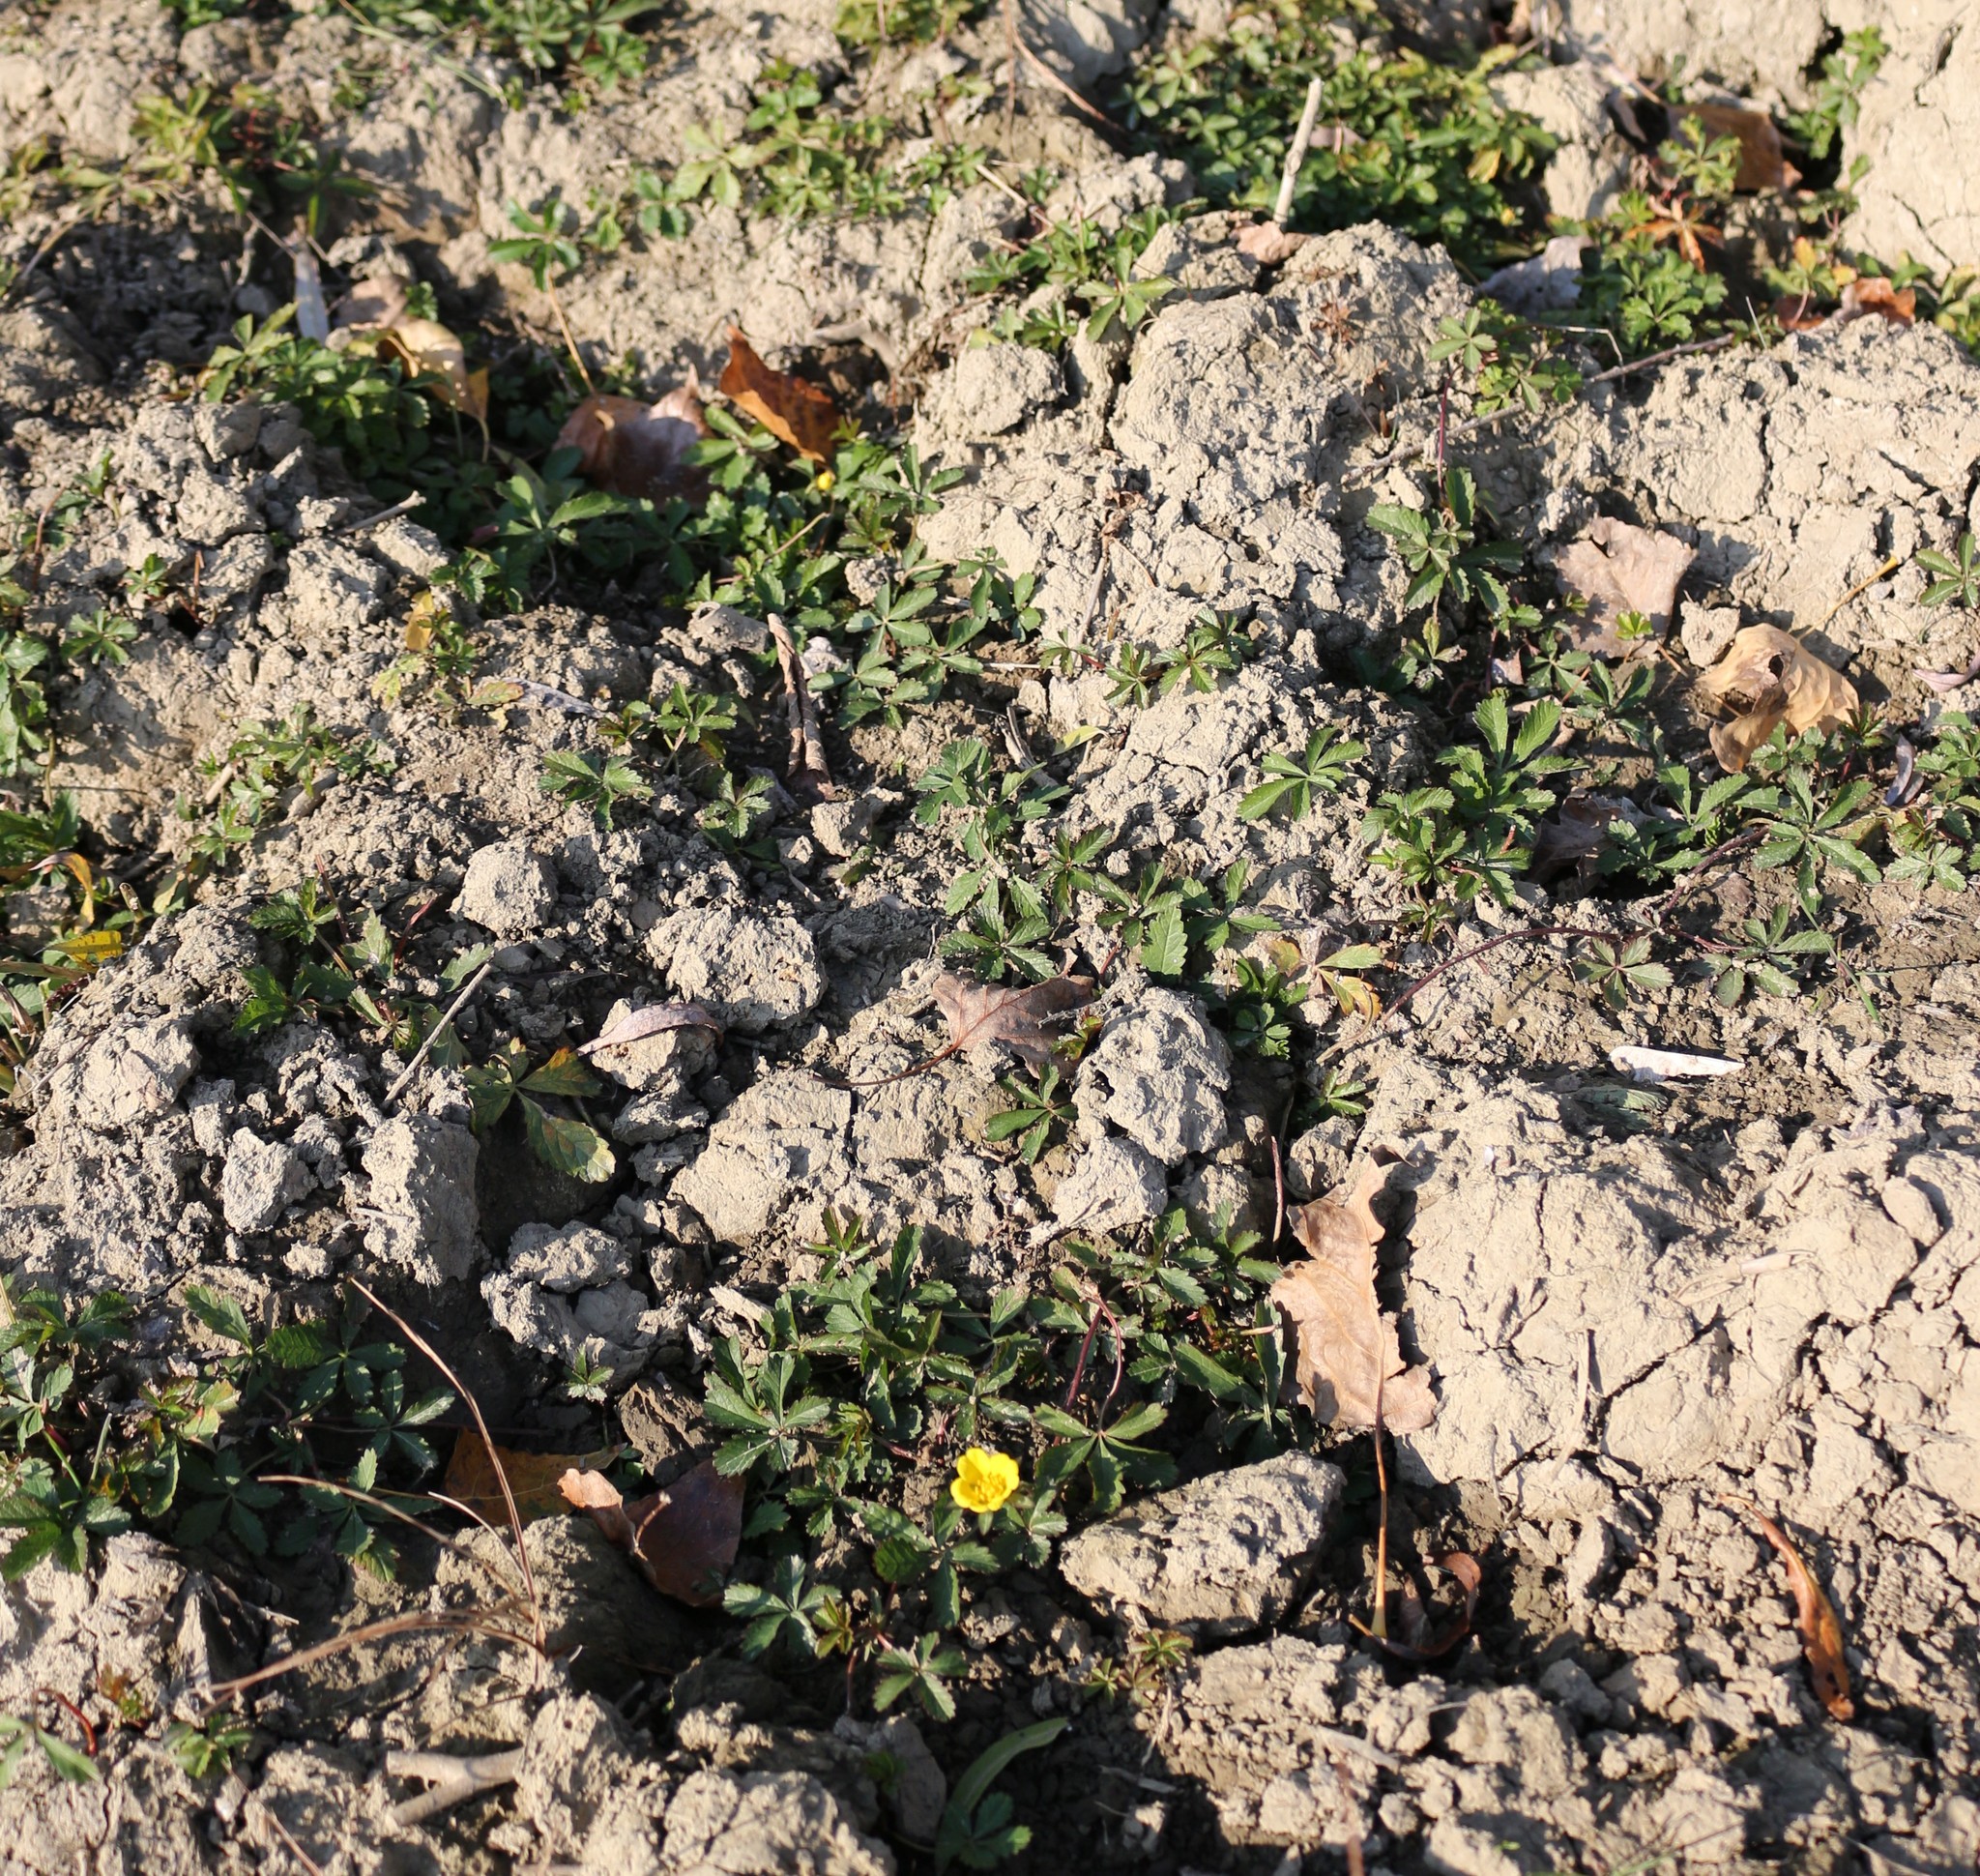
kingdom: Plantae
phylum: Tracheophyta
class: Magnoliopsida
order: Rosales
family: Rosaceae
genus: Potentilla
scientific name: Potentilla reptans
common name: Creeping cinquefoil
